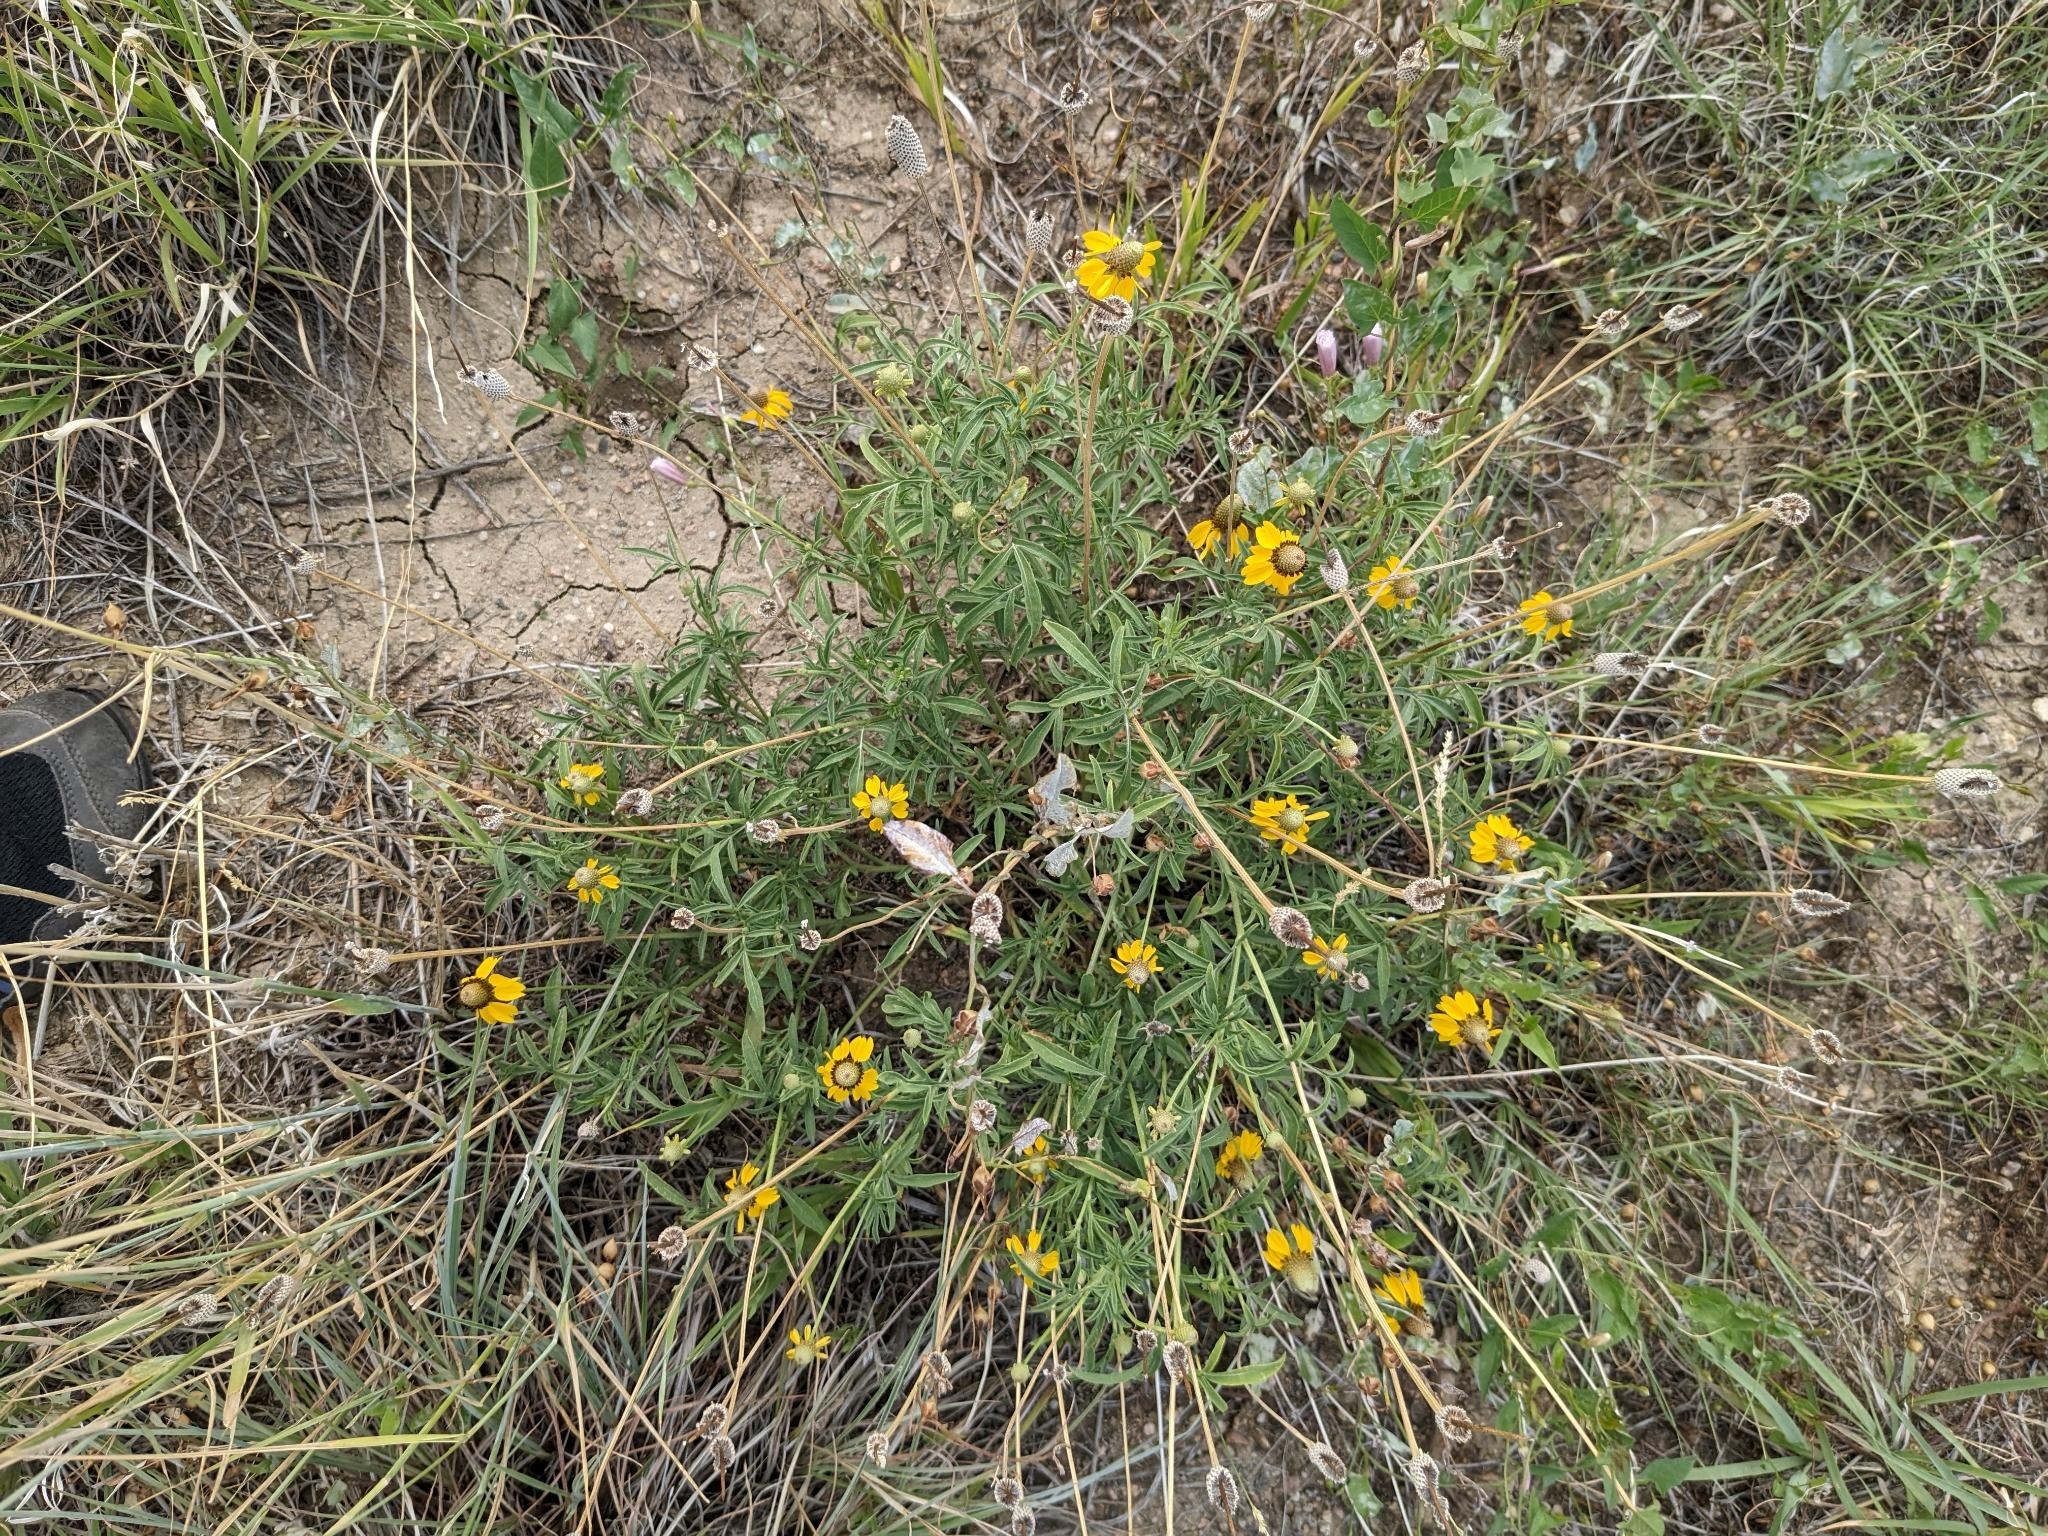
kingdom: Plantae
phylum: Tracheophyta
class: Magnoliopsida
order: Asterales
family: Asteraceae
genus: Ratibida
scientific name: Ratibida columnifera
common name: Prairie coneflower
